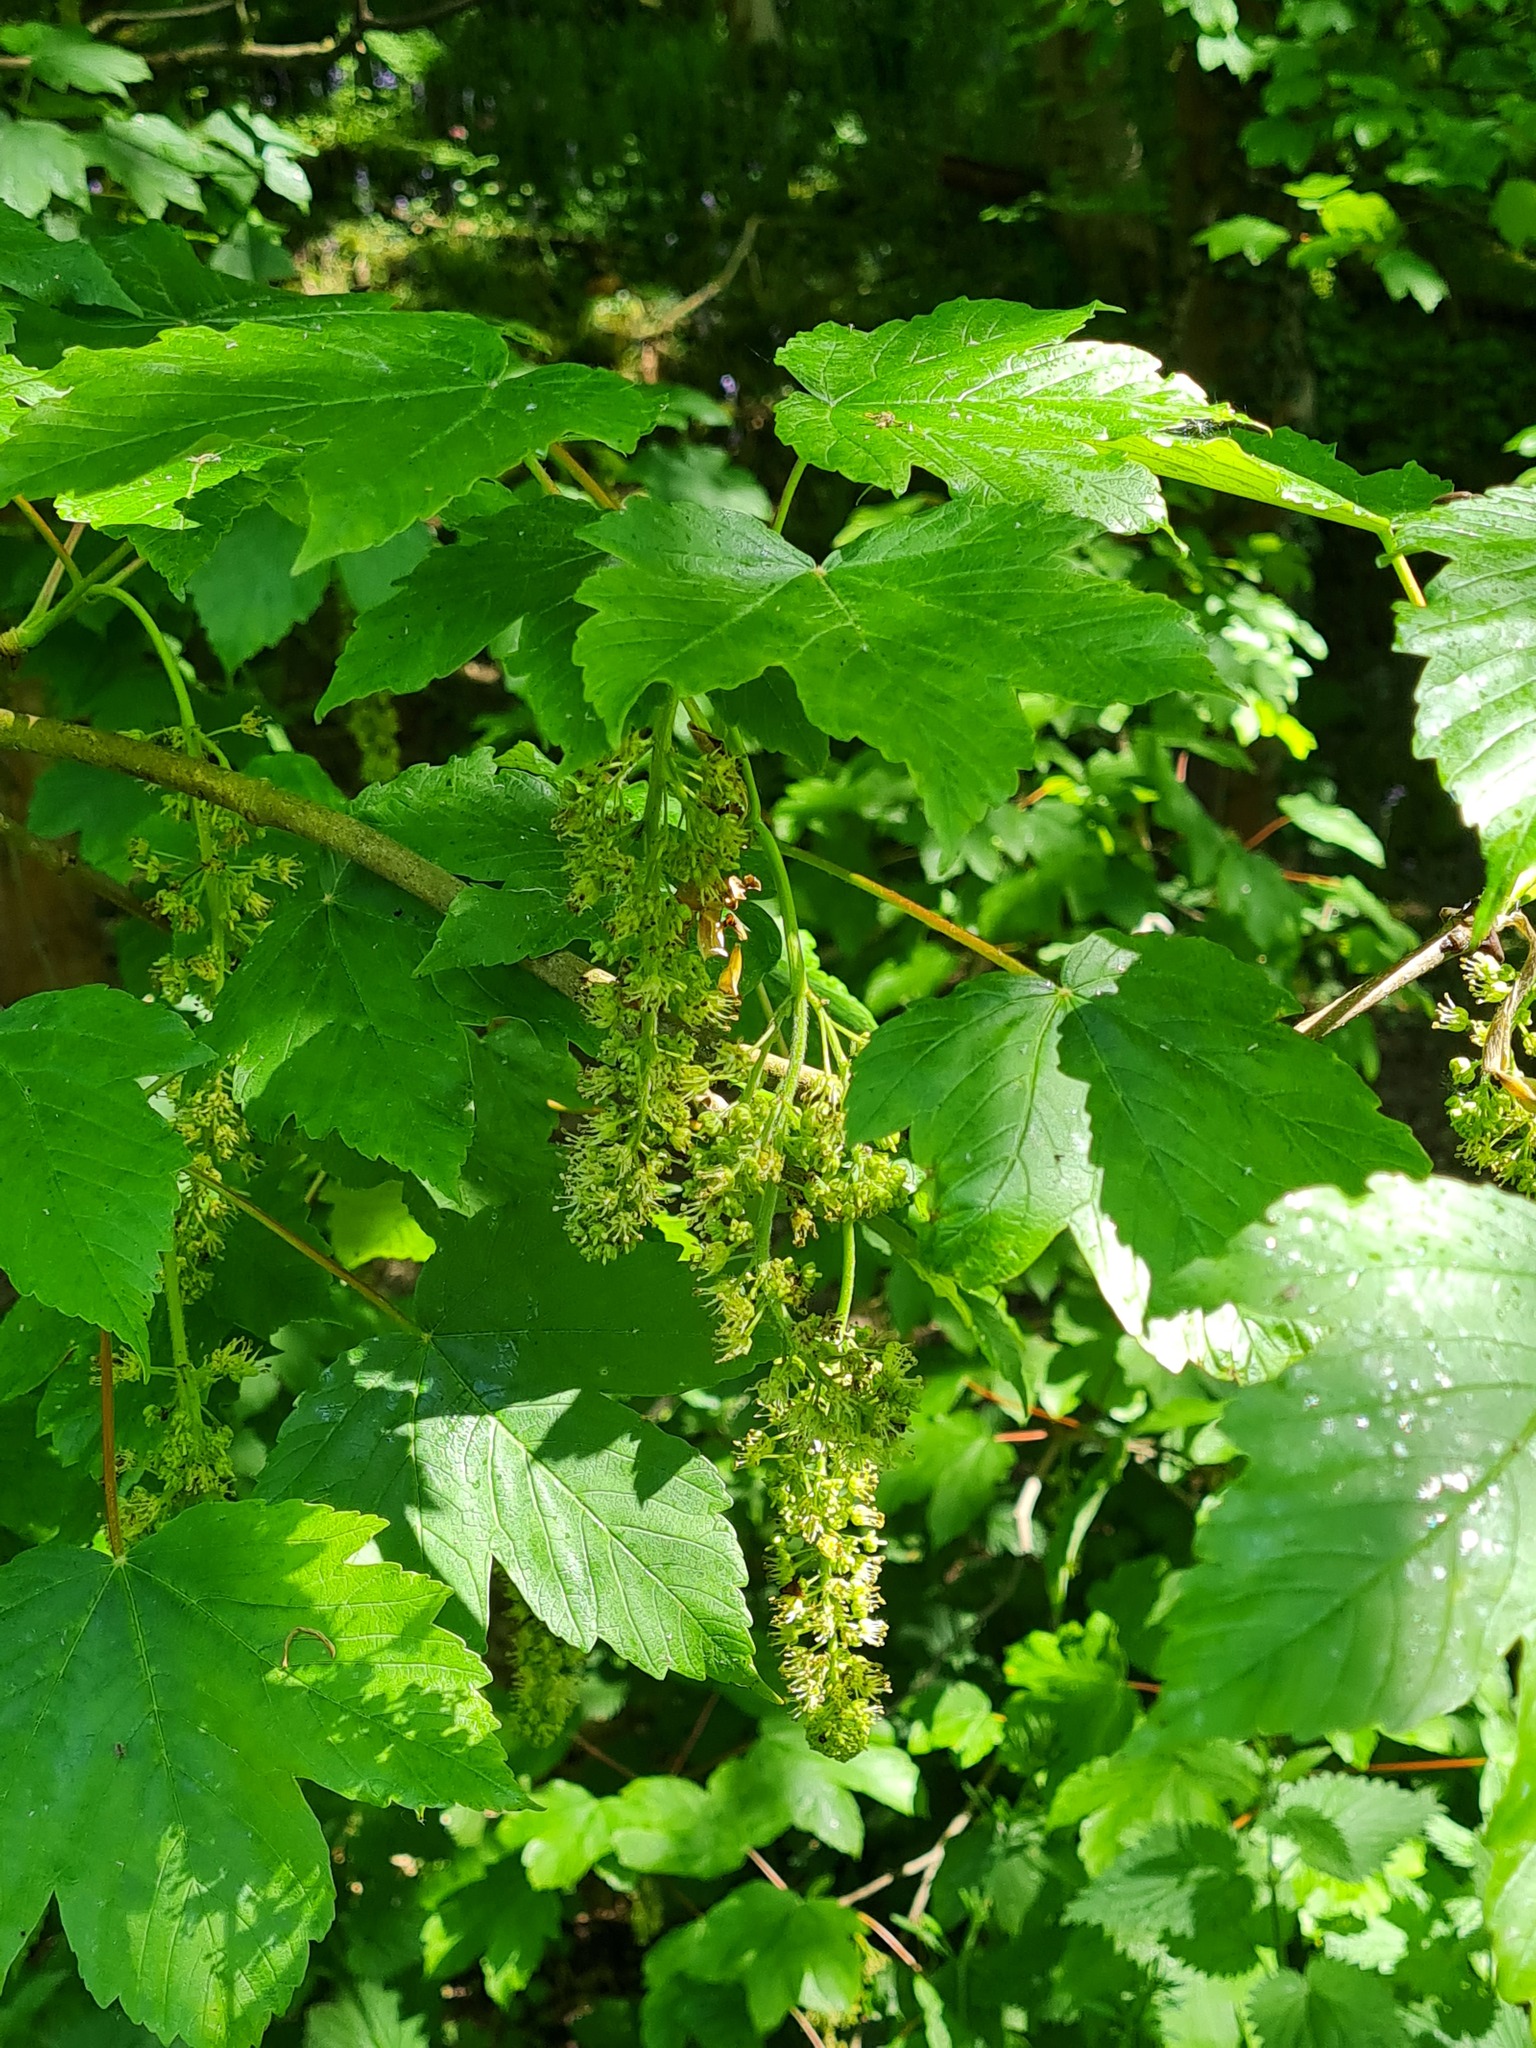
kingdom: Plantae
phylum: Tracheophyta
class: Magnoliopsida
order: Sapindales
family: Sapindaceae
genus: Acer
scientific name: Acer pseudoplatanus
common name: Sycamore
